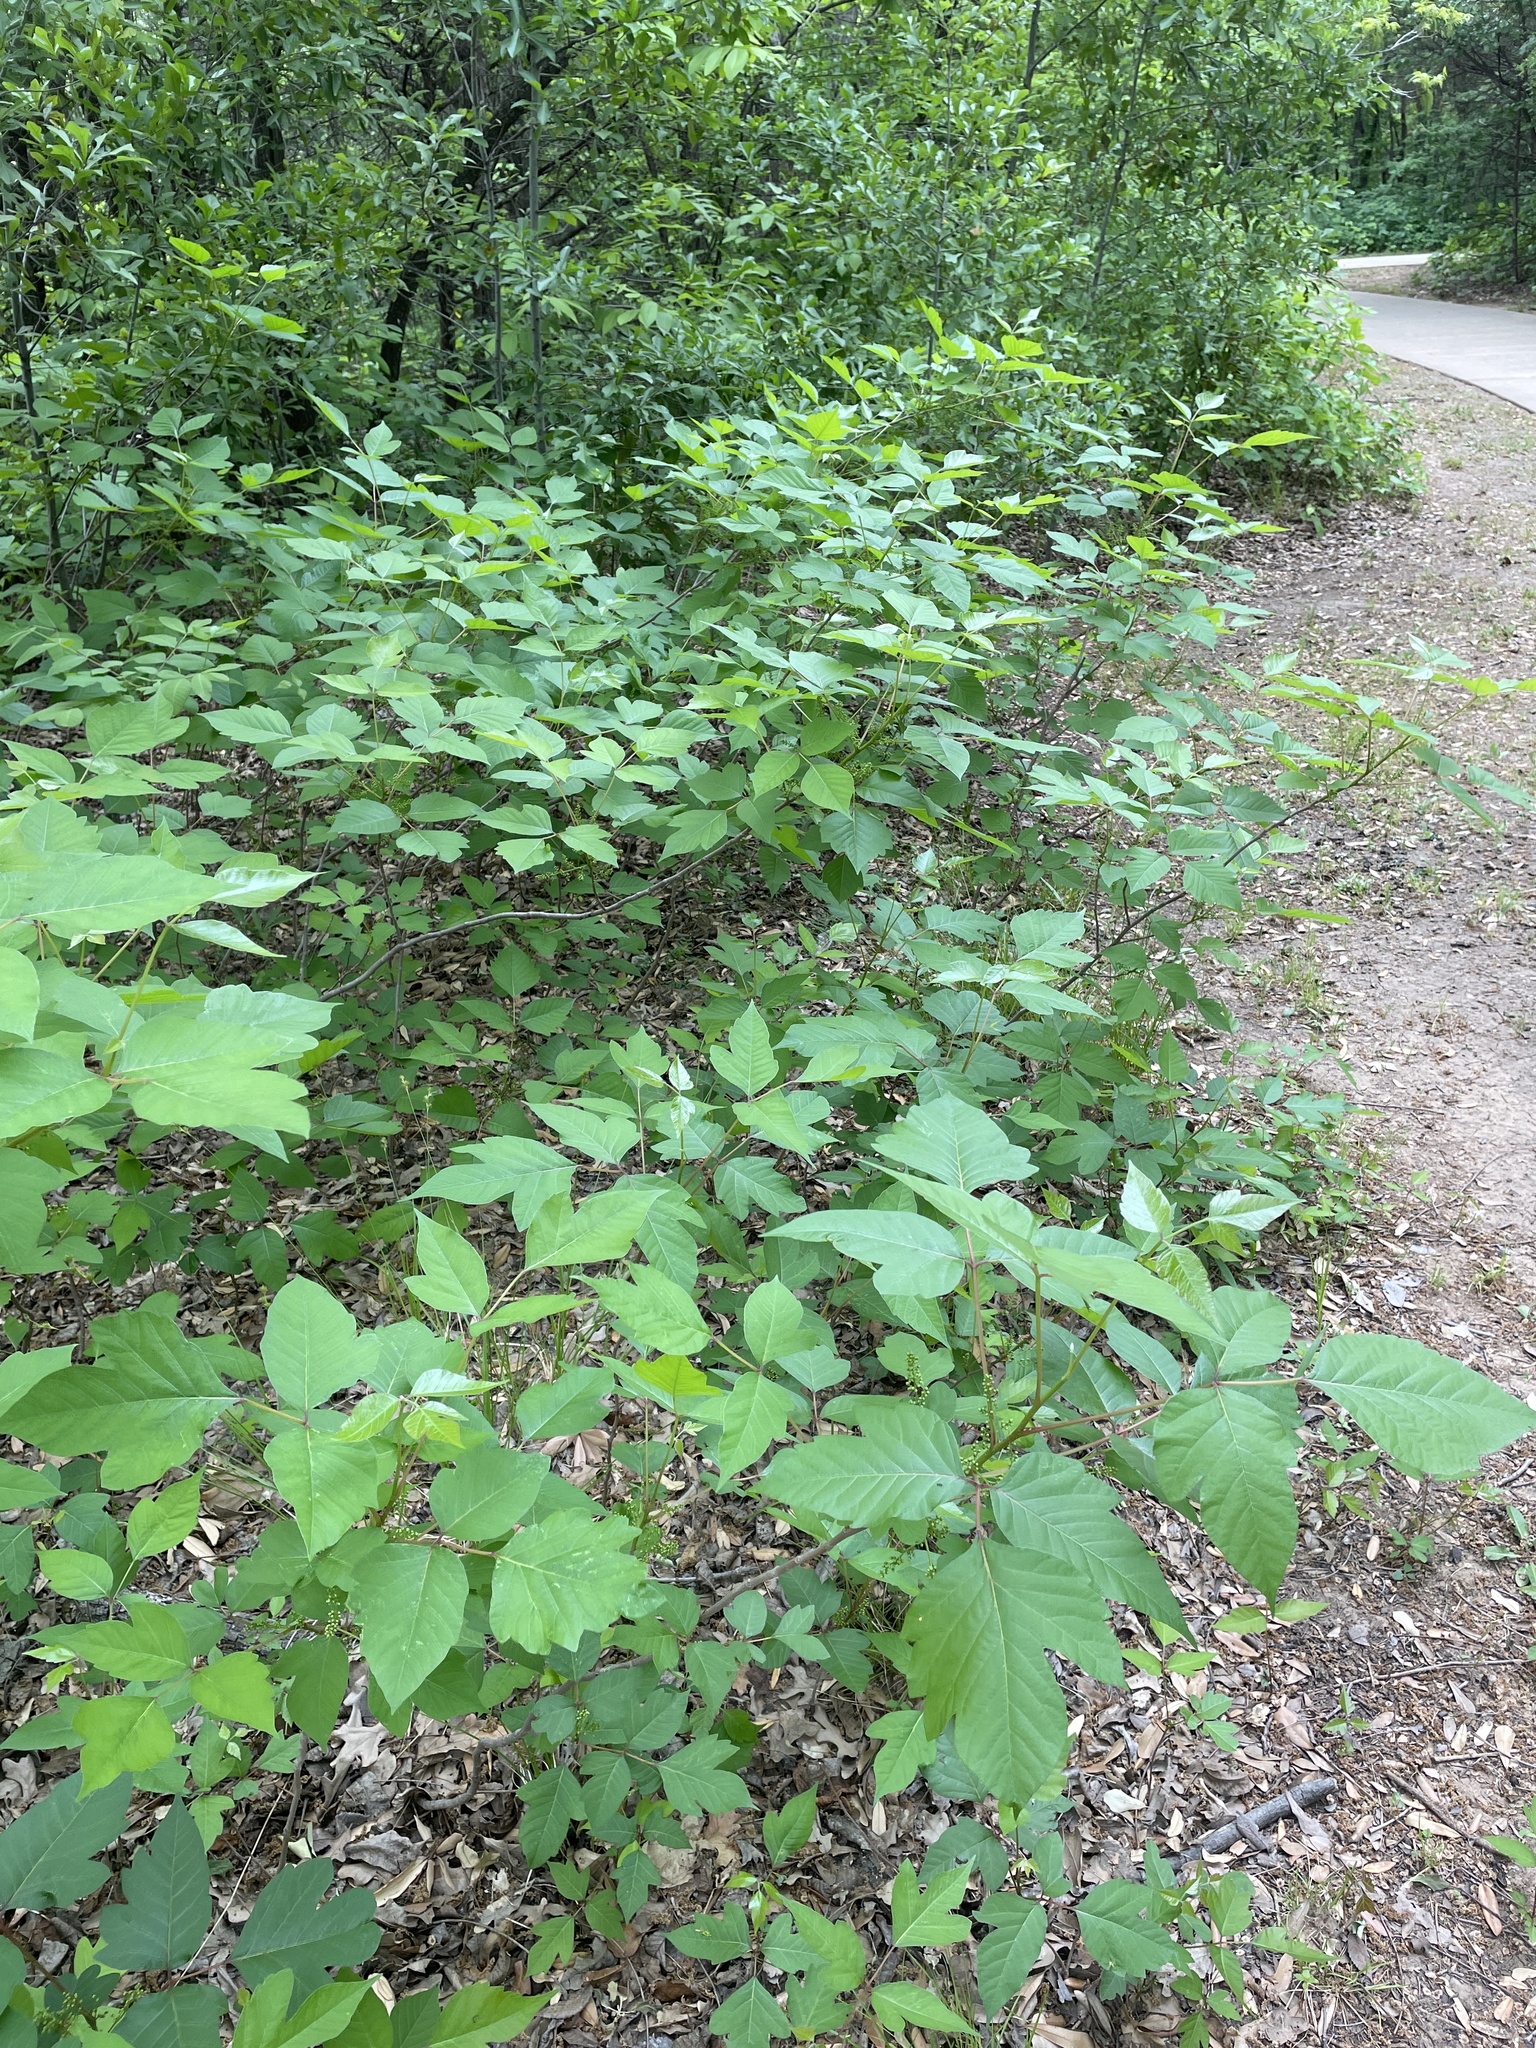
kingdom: Plantae
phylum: Tracheophyta
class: Magnoliopsida
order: Sapindales
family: Anacardiaceae
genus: Toxicodendron
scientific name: Toxicodendron radicans
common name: Poison ivy
